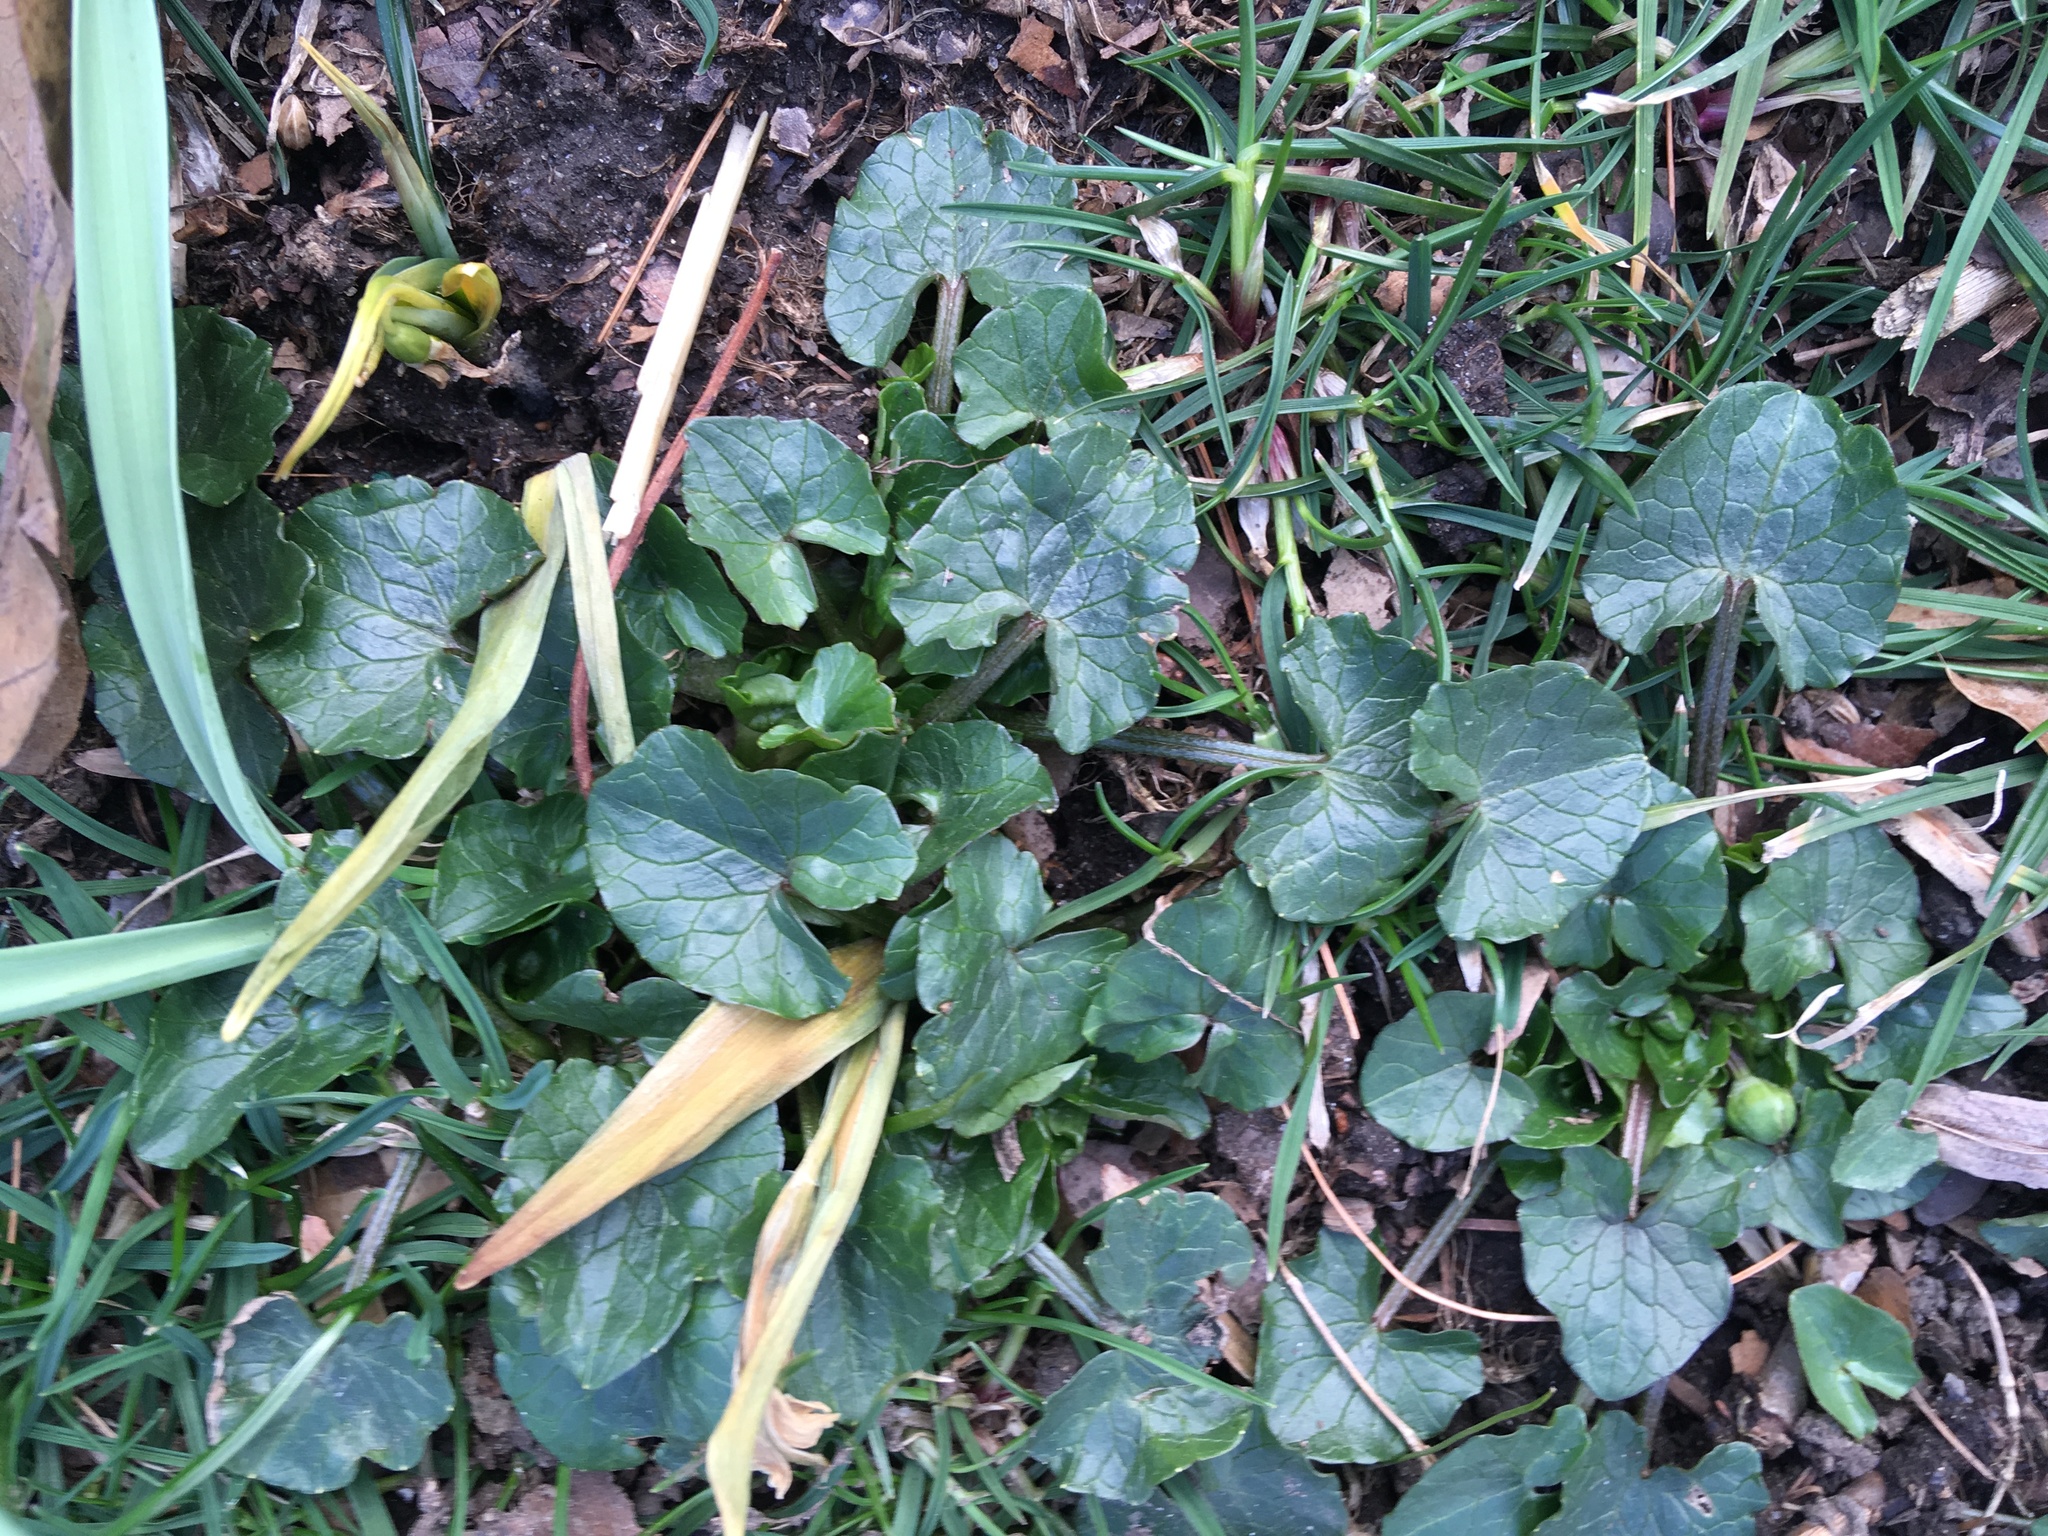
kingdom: Plantae
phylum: Tracheophyta
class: Magnoliopsida
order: Ranunculales
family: Ranunculaceae
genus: Ficaria
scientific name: Ficaria verna
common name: Lesser celandine
